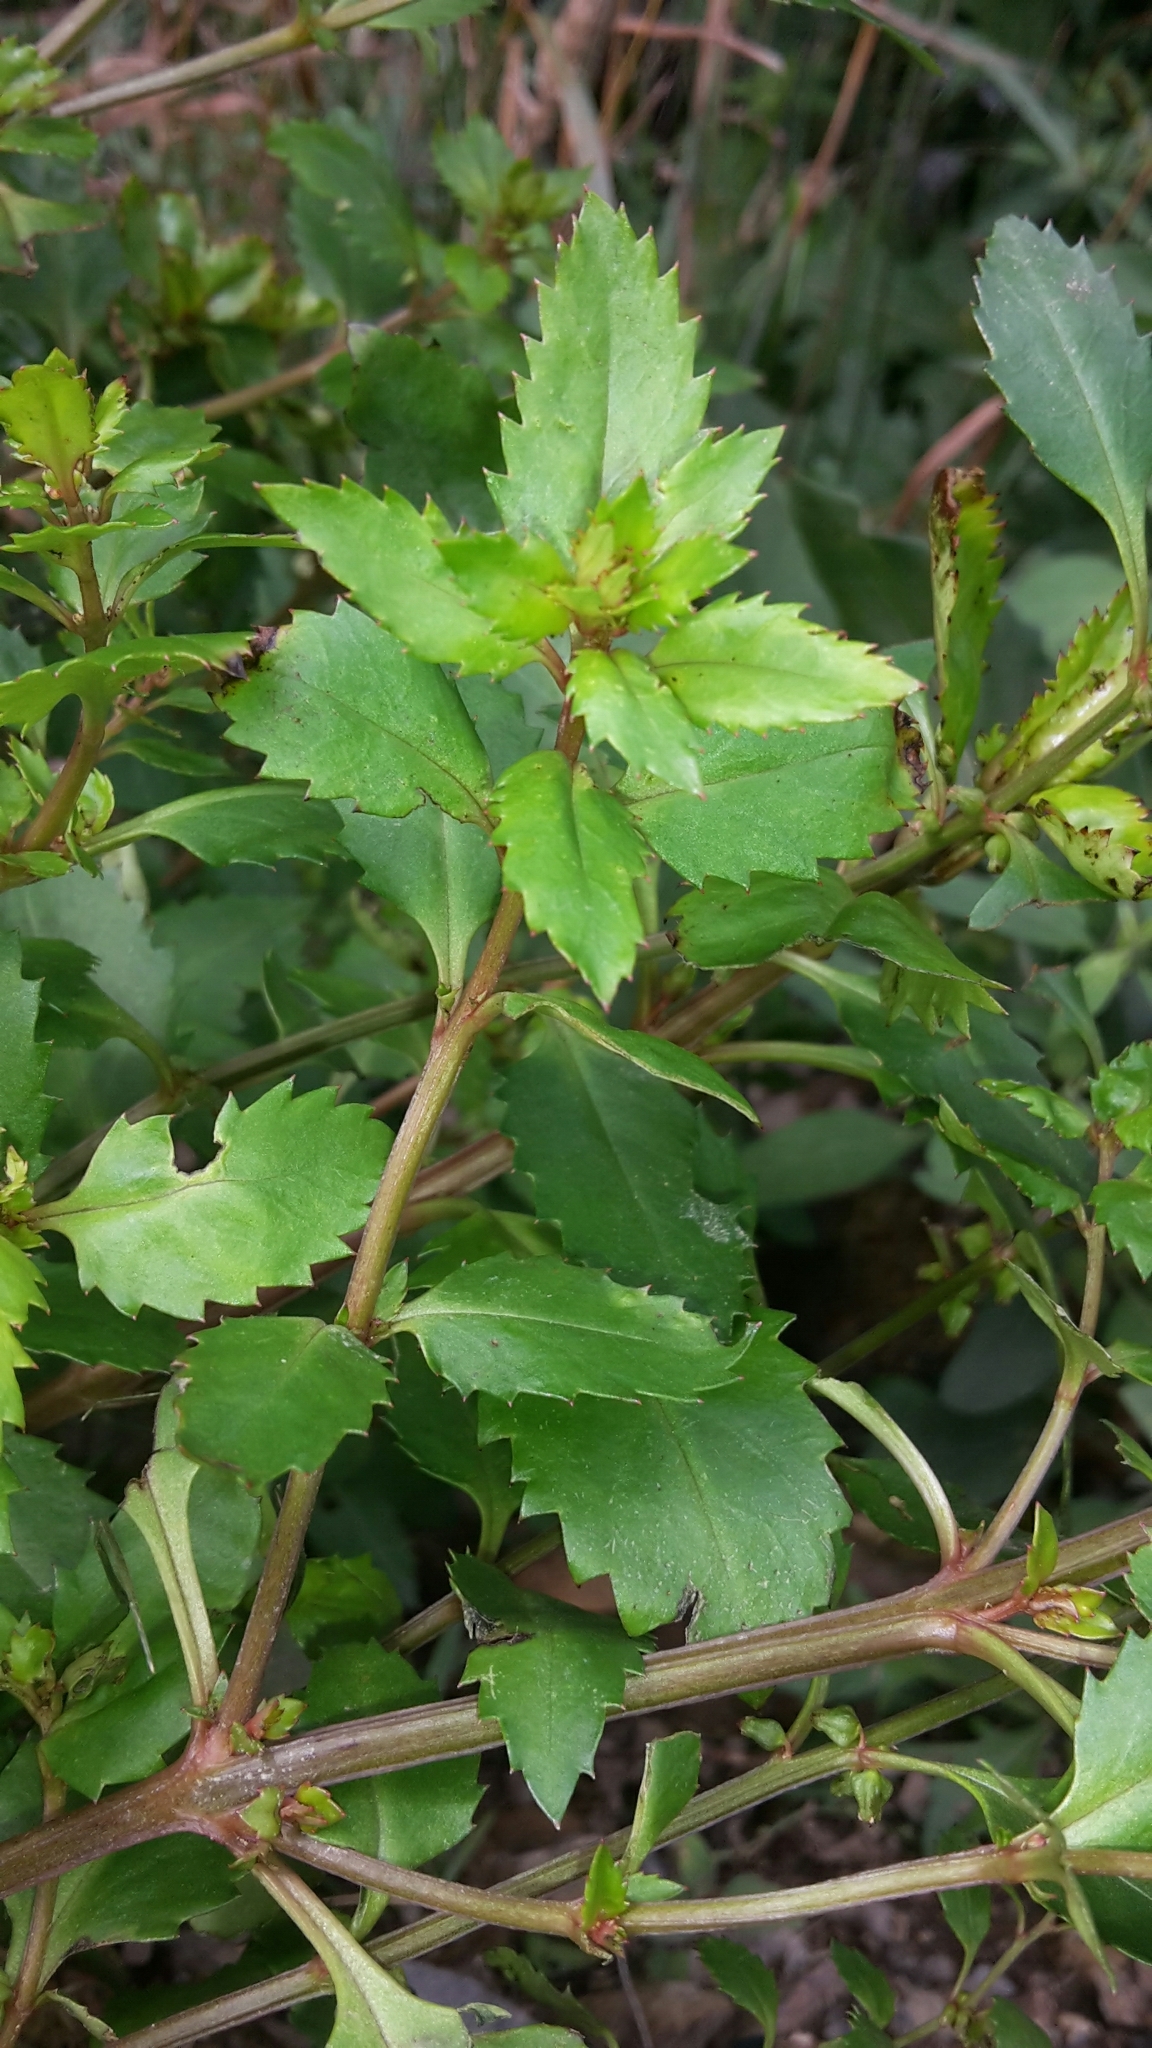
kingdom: Plantae
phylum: Tracheophyta
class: Magnoliopsida
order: Saxifragales
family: Haloragaceae
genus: Haloragis
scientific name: Haloragis erecta
